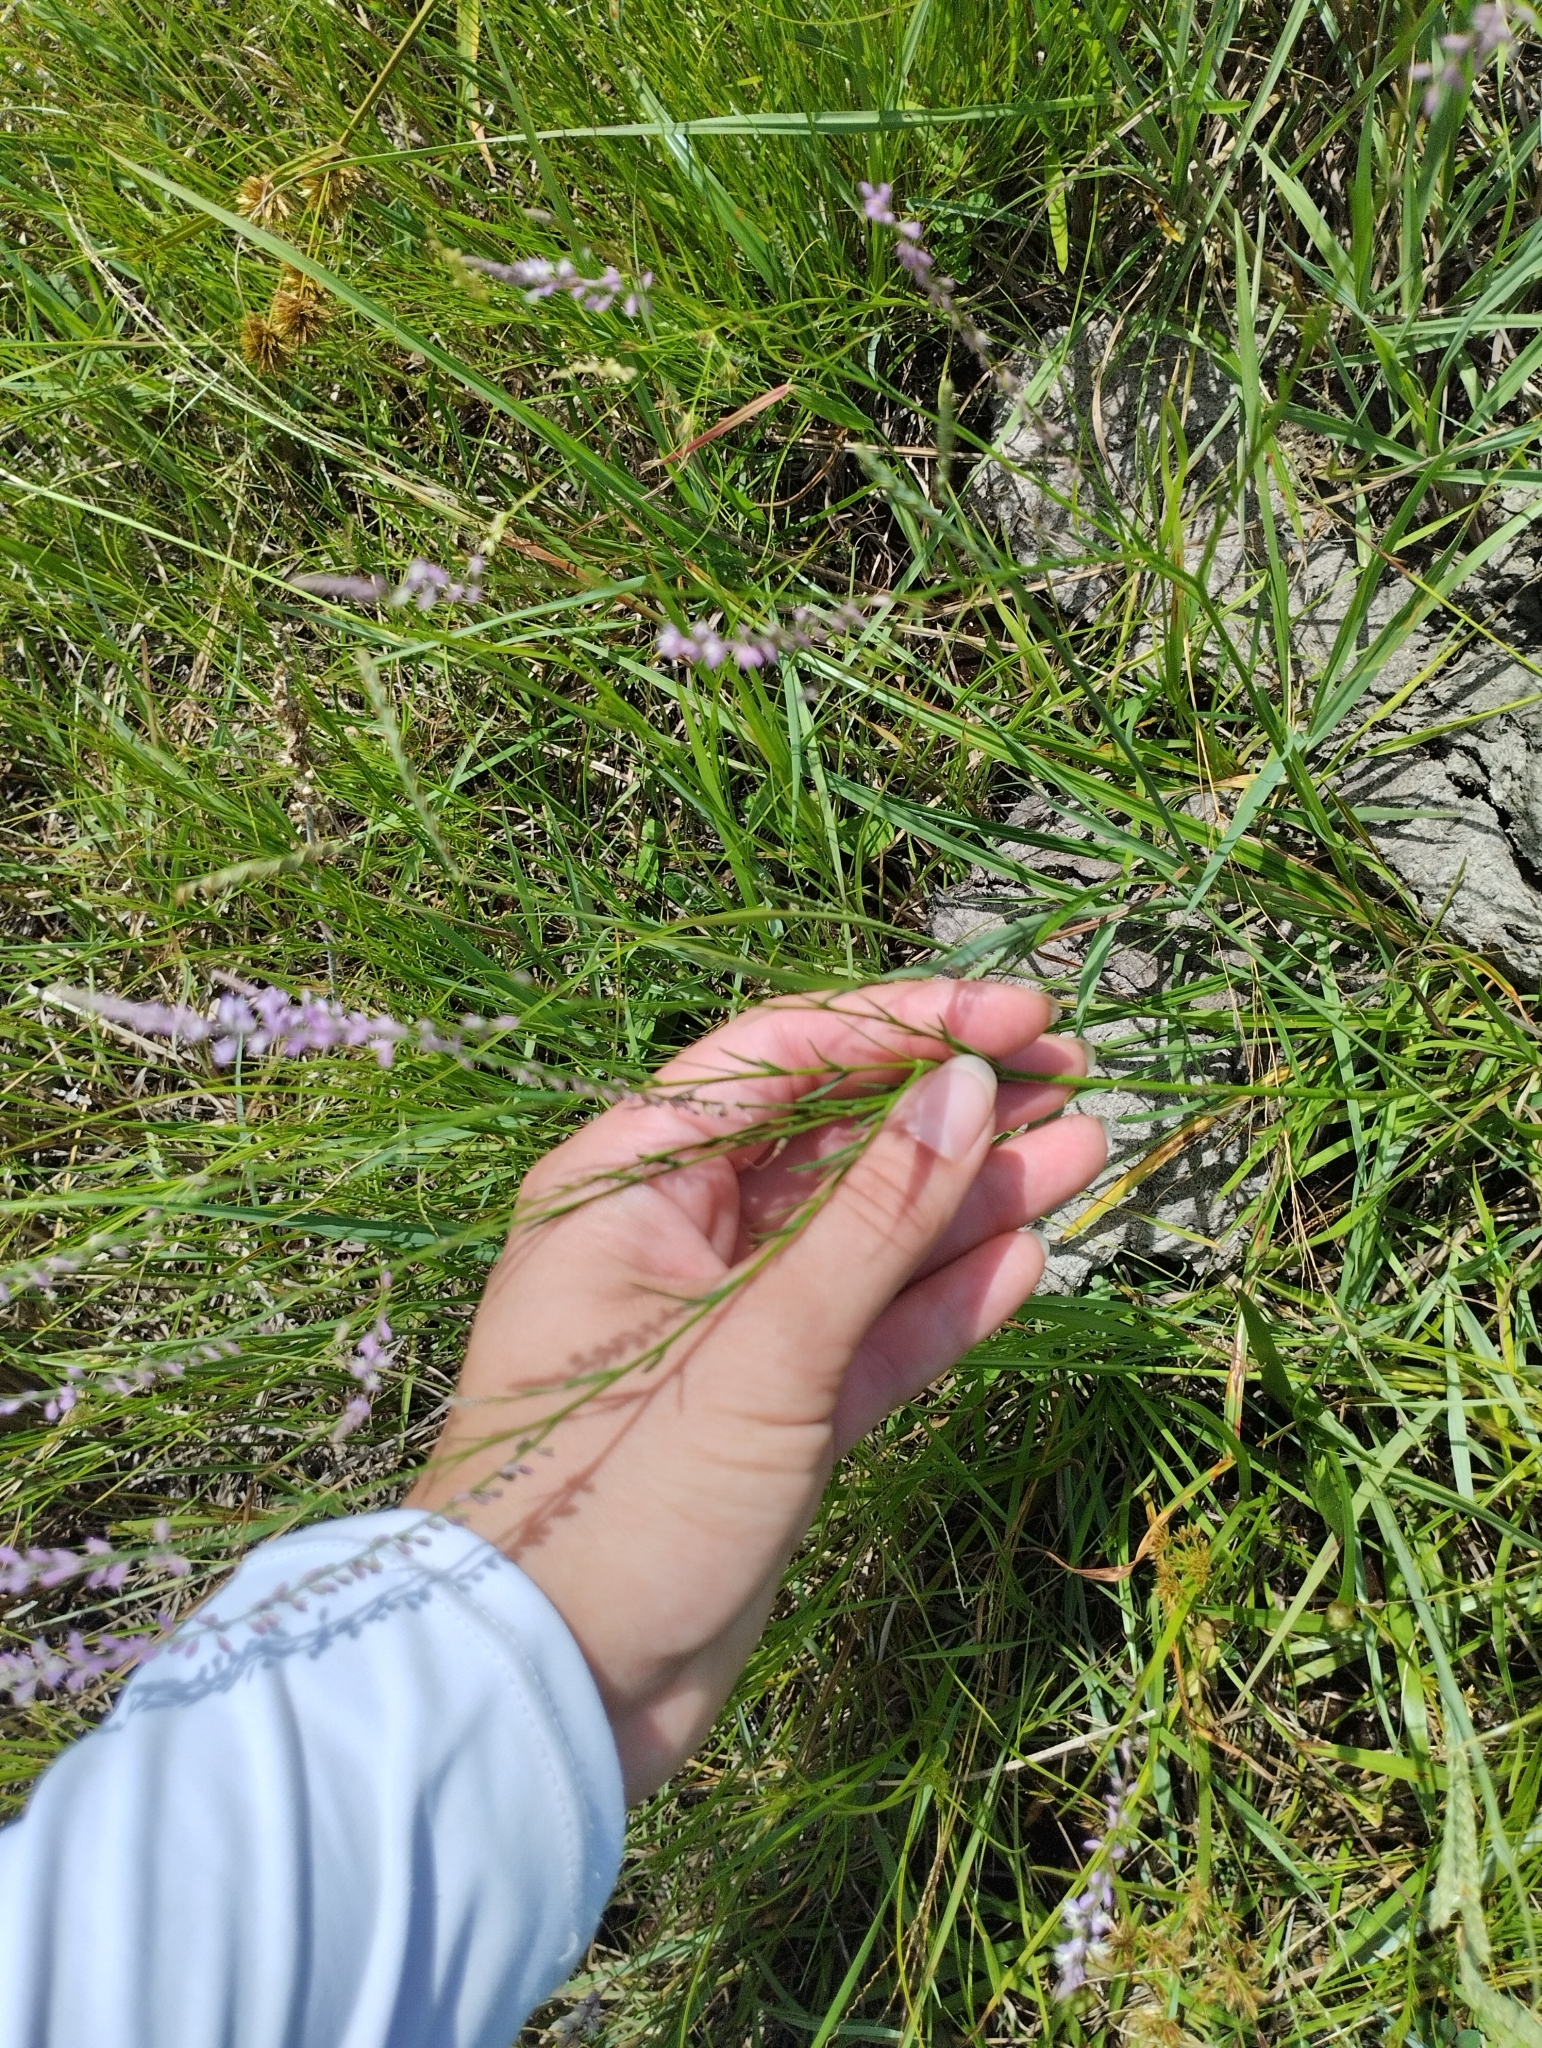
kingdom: Plantae
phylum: Tracheophyta
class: Magnoliopsida
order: Fabales
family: Polygalaceae
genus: Polygala
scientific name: Polygala tenella
